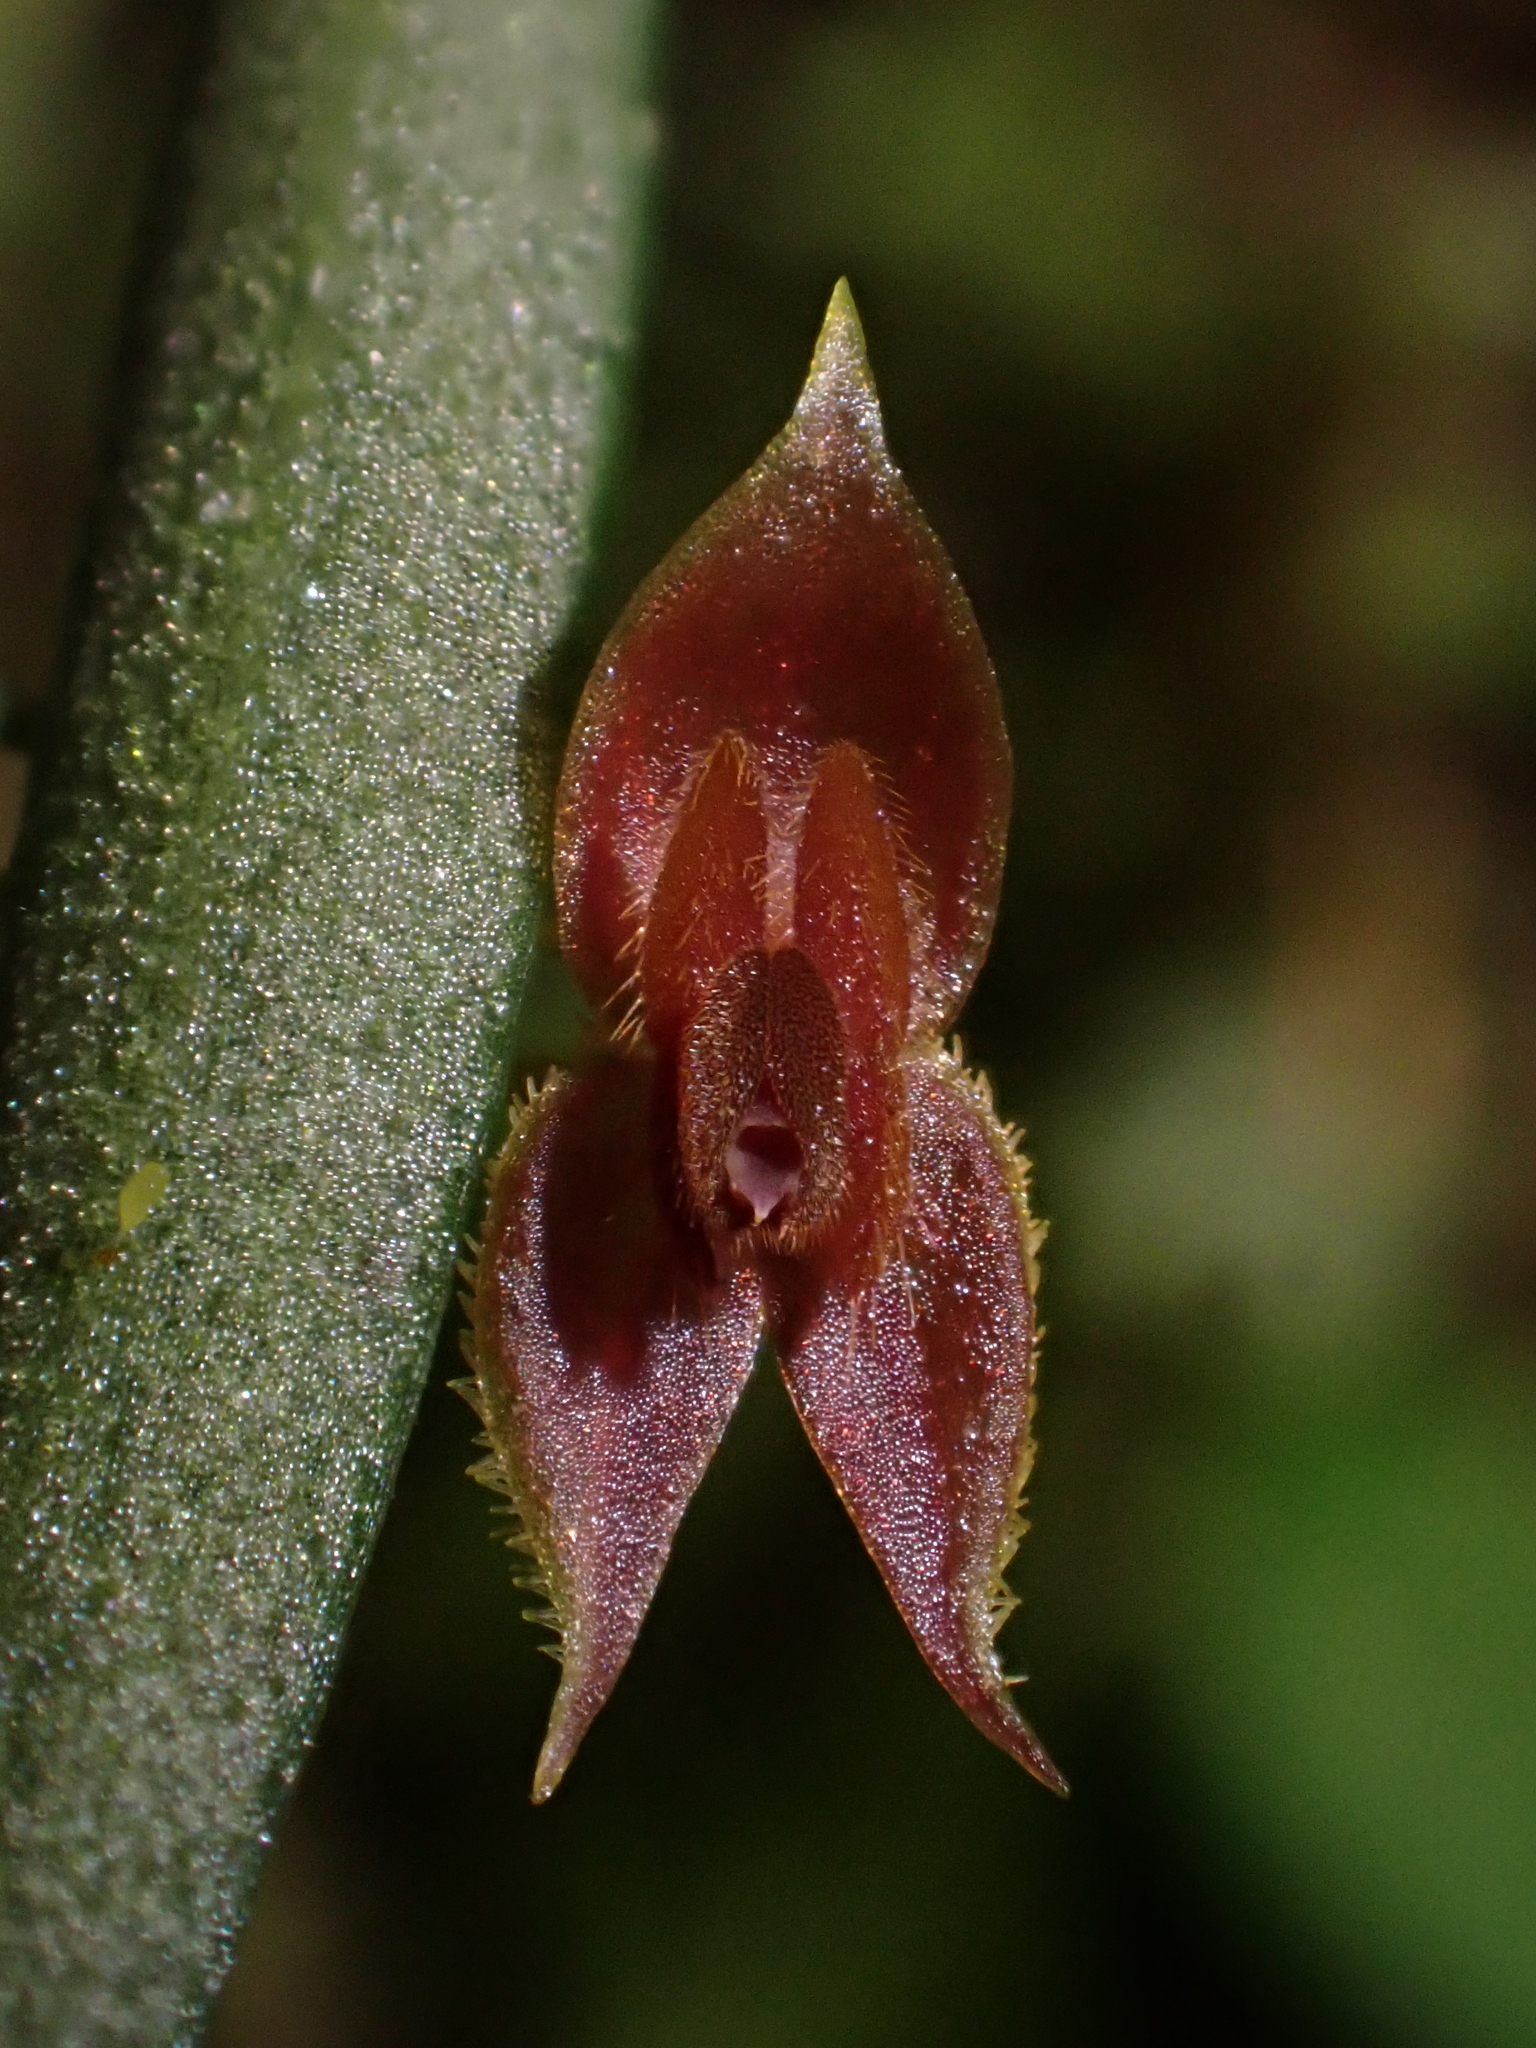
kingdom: Plantae
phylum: Tracheophyta
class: Liliopsida
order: Asparagales
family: Orchidaceae
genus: Lepanthes
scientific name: Lepanthes thoracica
